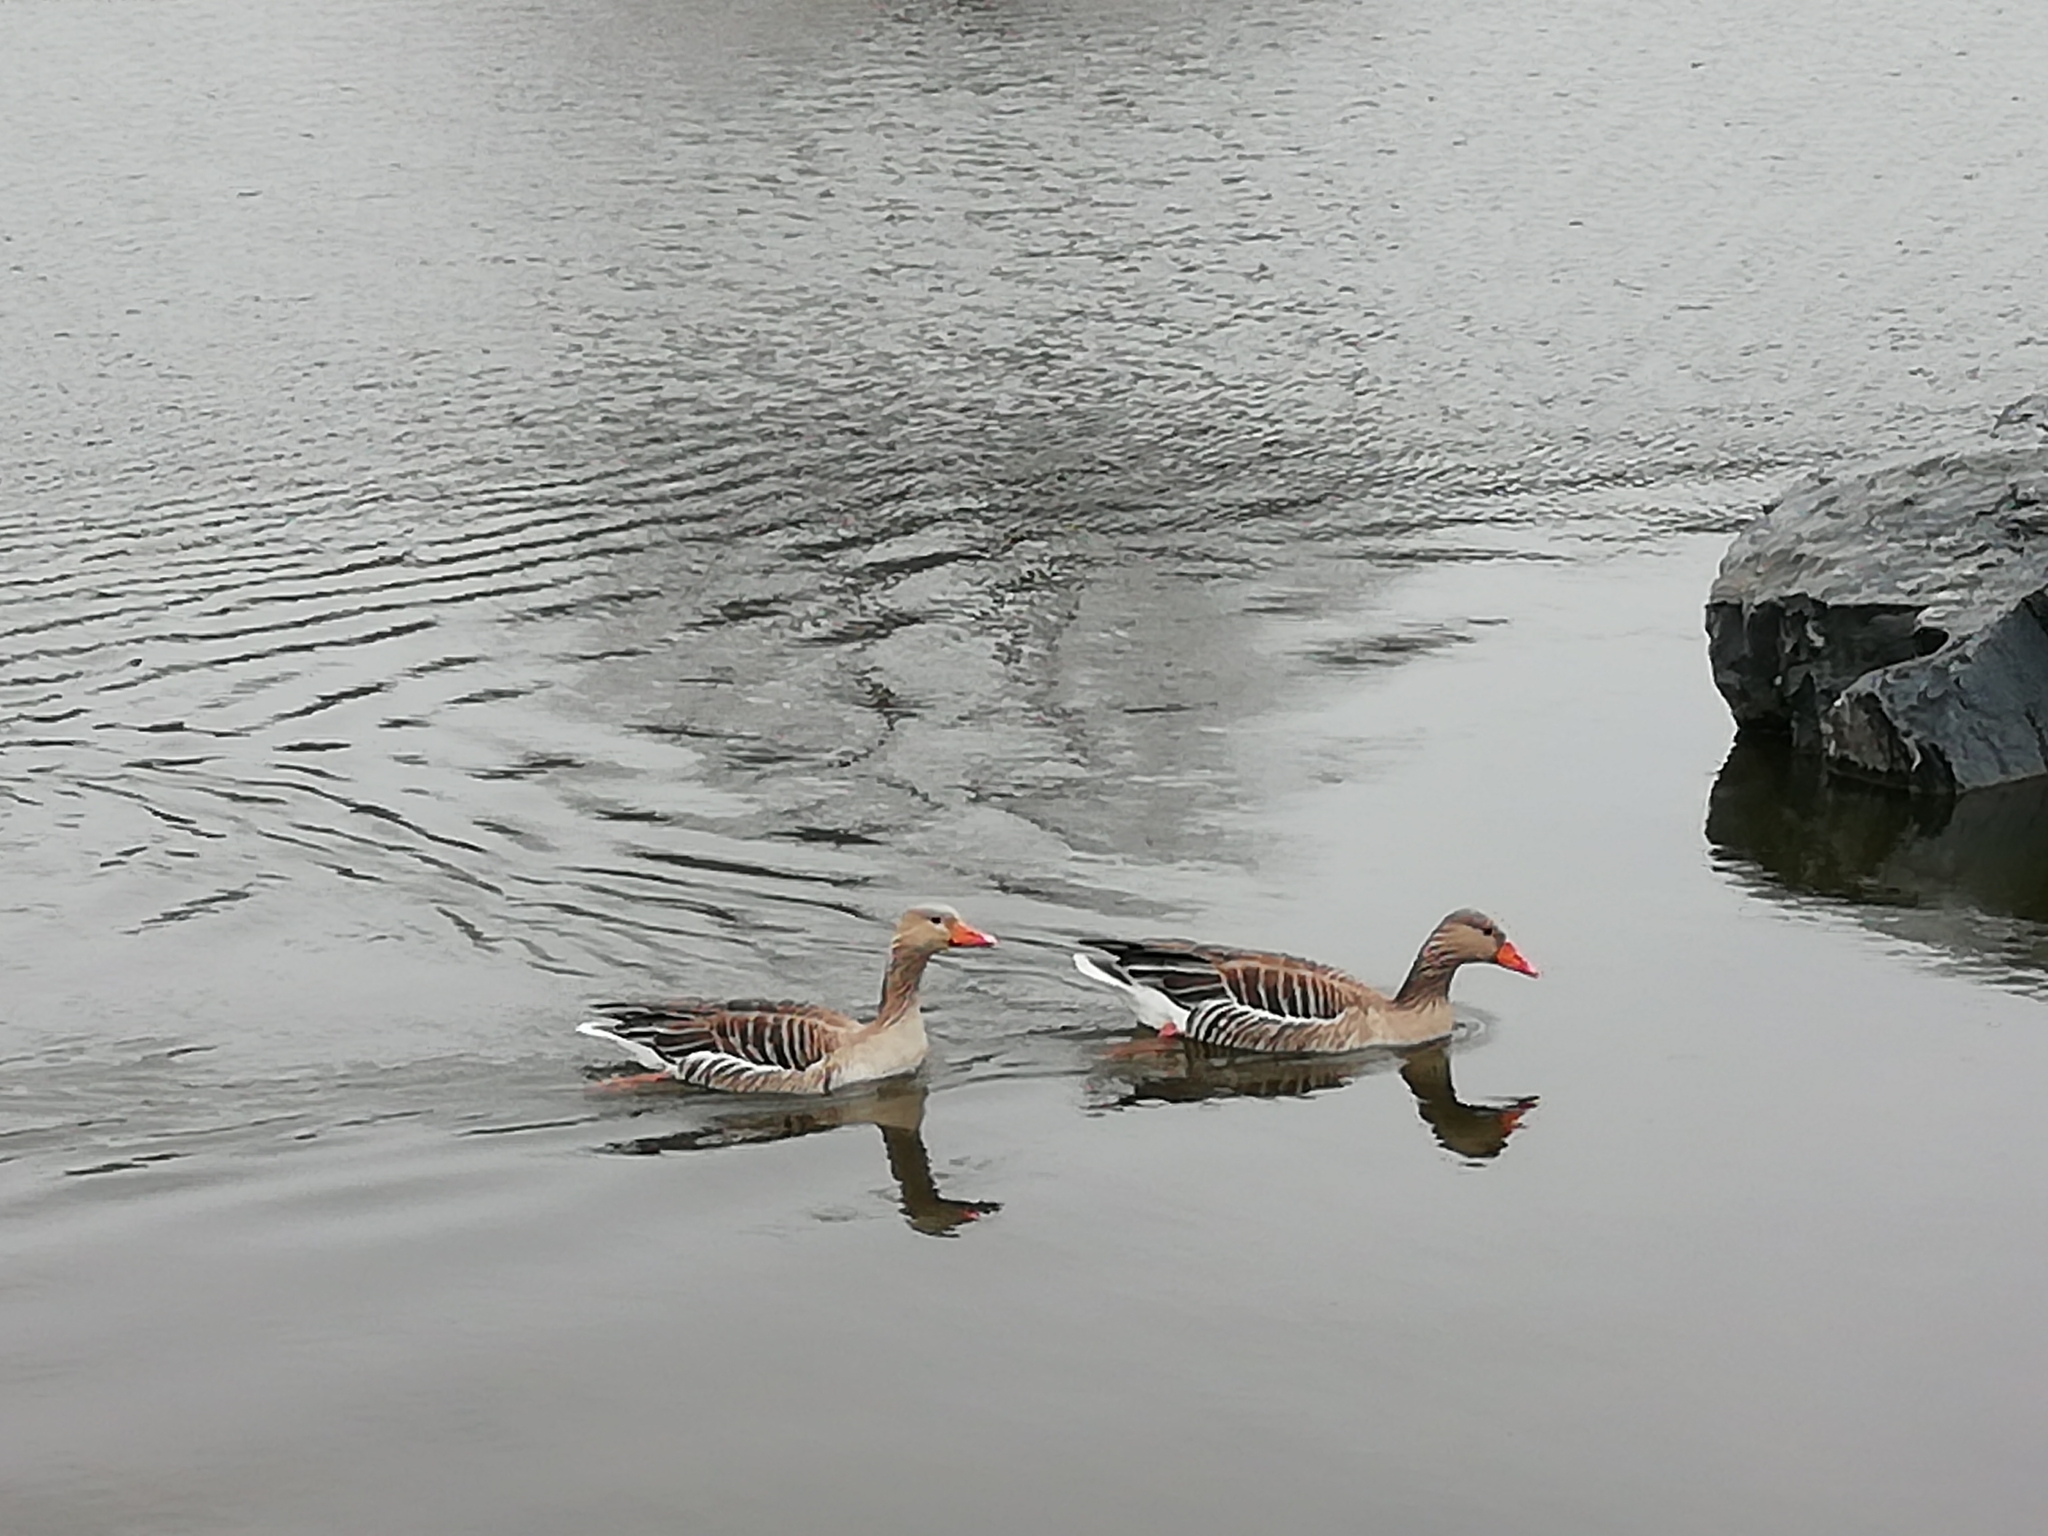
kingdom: Animalia
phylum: Chordata
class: Aves
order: Anseriformes
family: Anatidae
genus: Anser
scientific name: Anser anser
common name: Greylag goose
